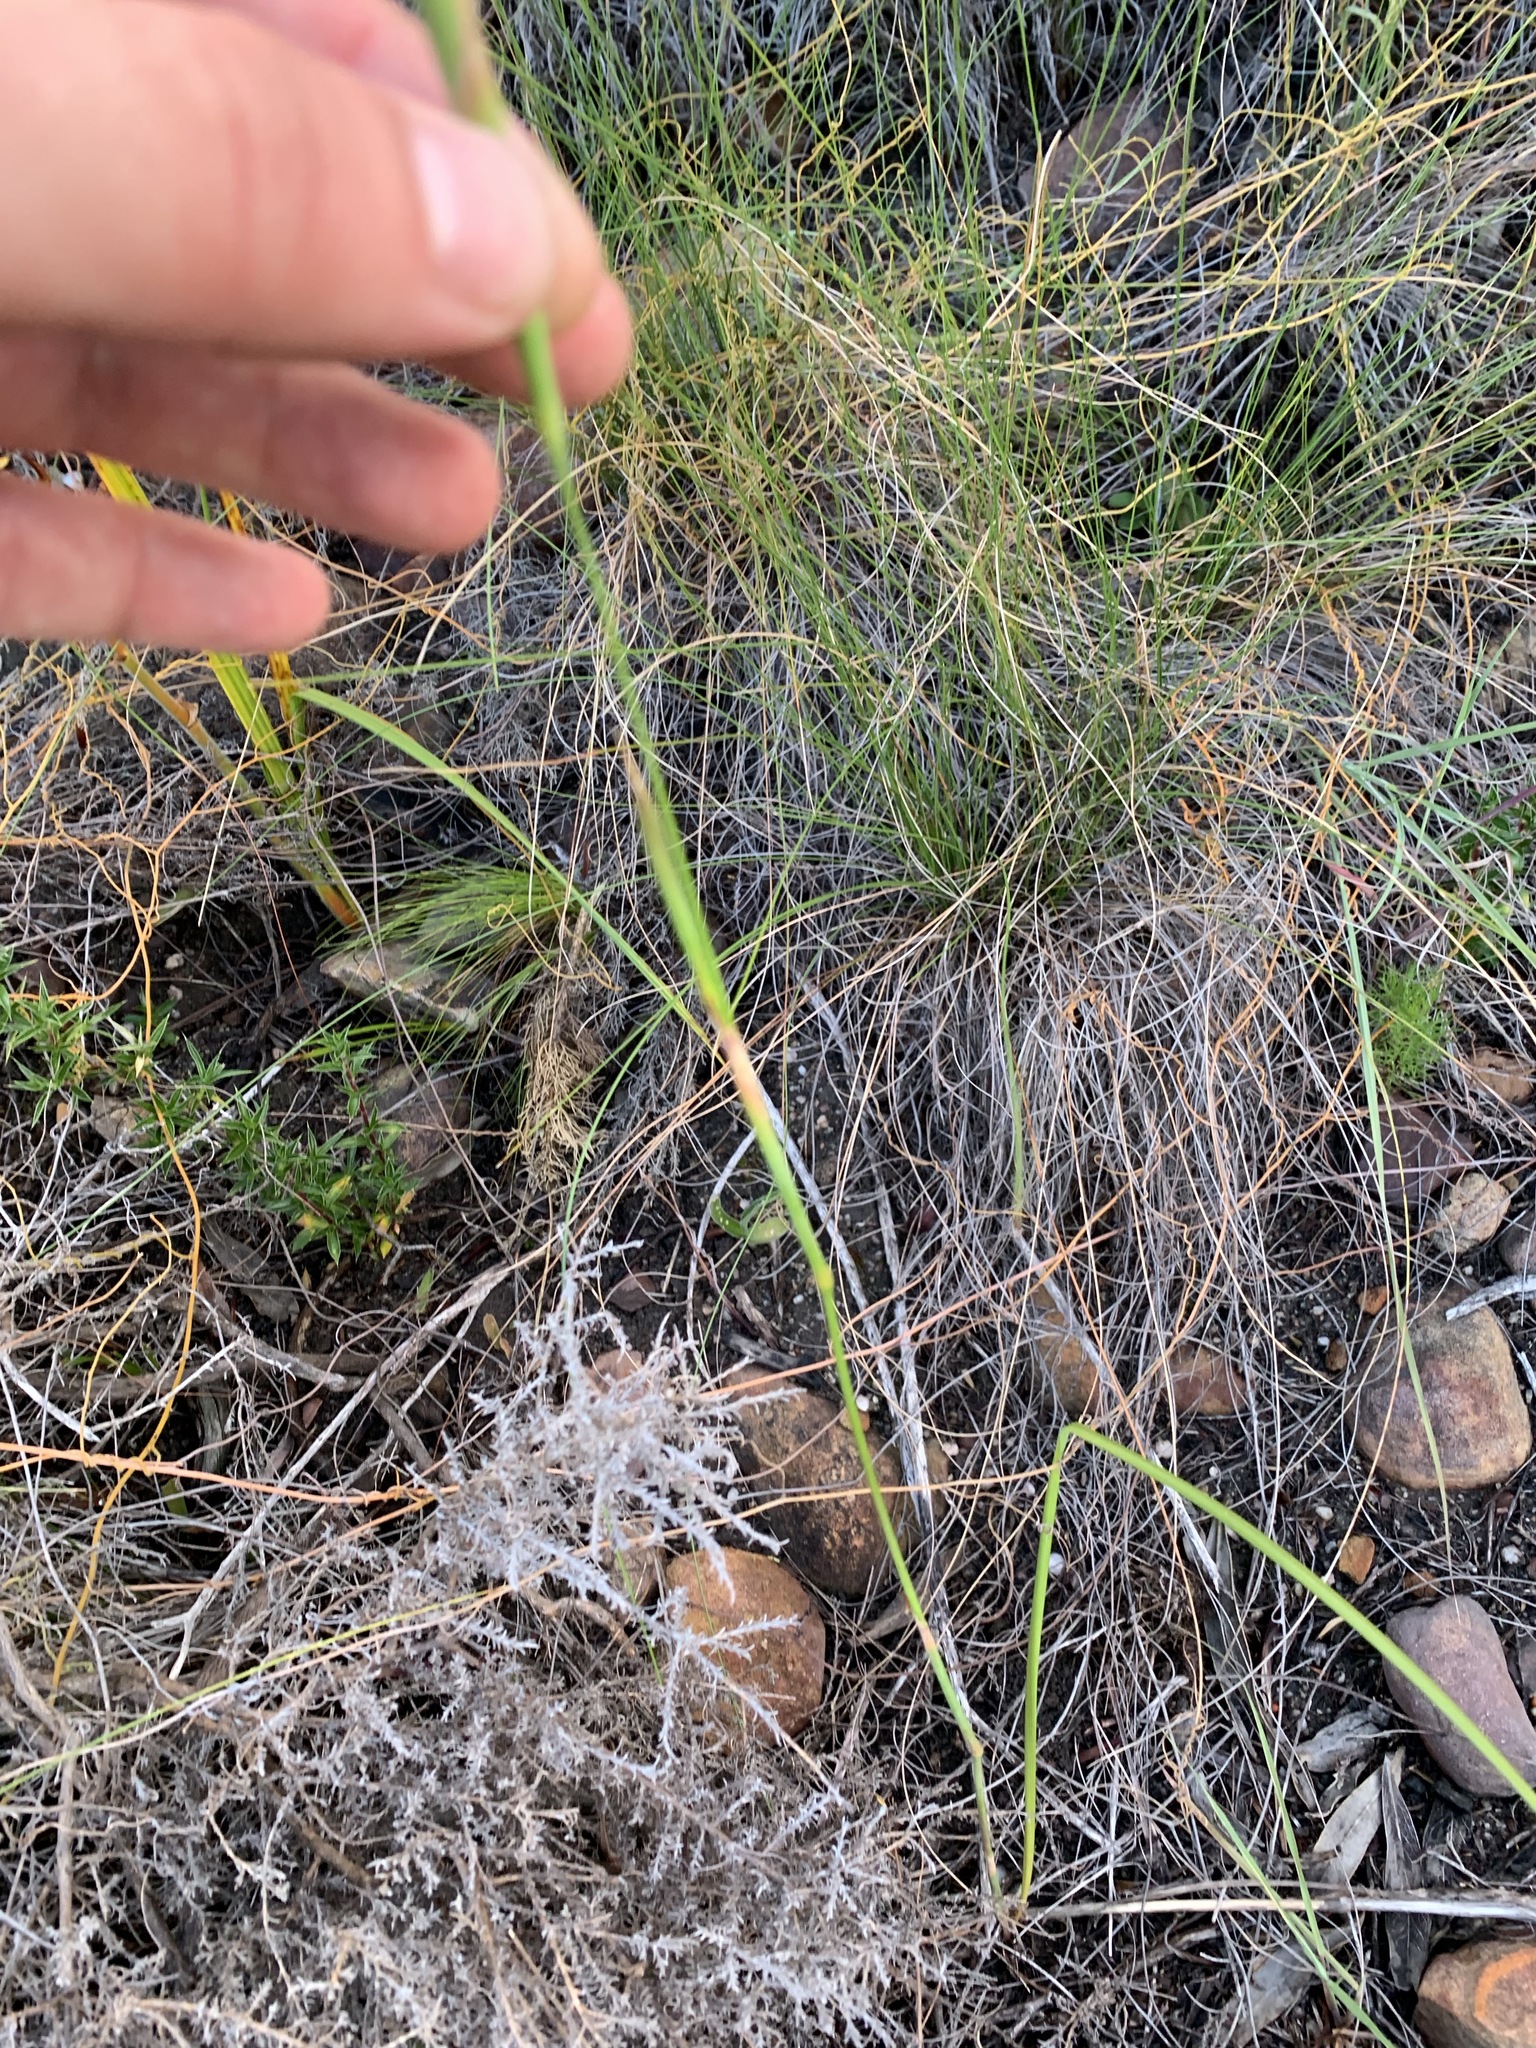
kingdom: Plantae
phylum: Tracheophyta
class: Liliopsida
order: Asparagales
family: Iridaceae
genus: Moraea
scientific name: Moraea bellendenii
